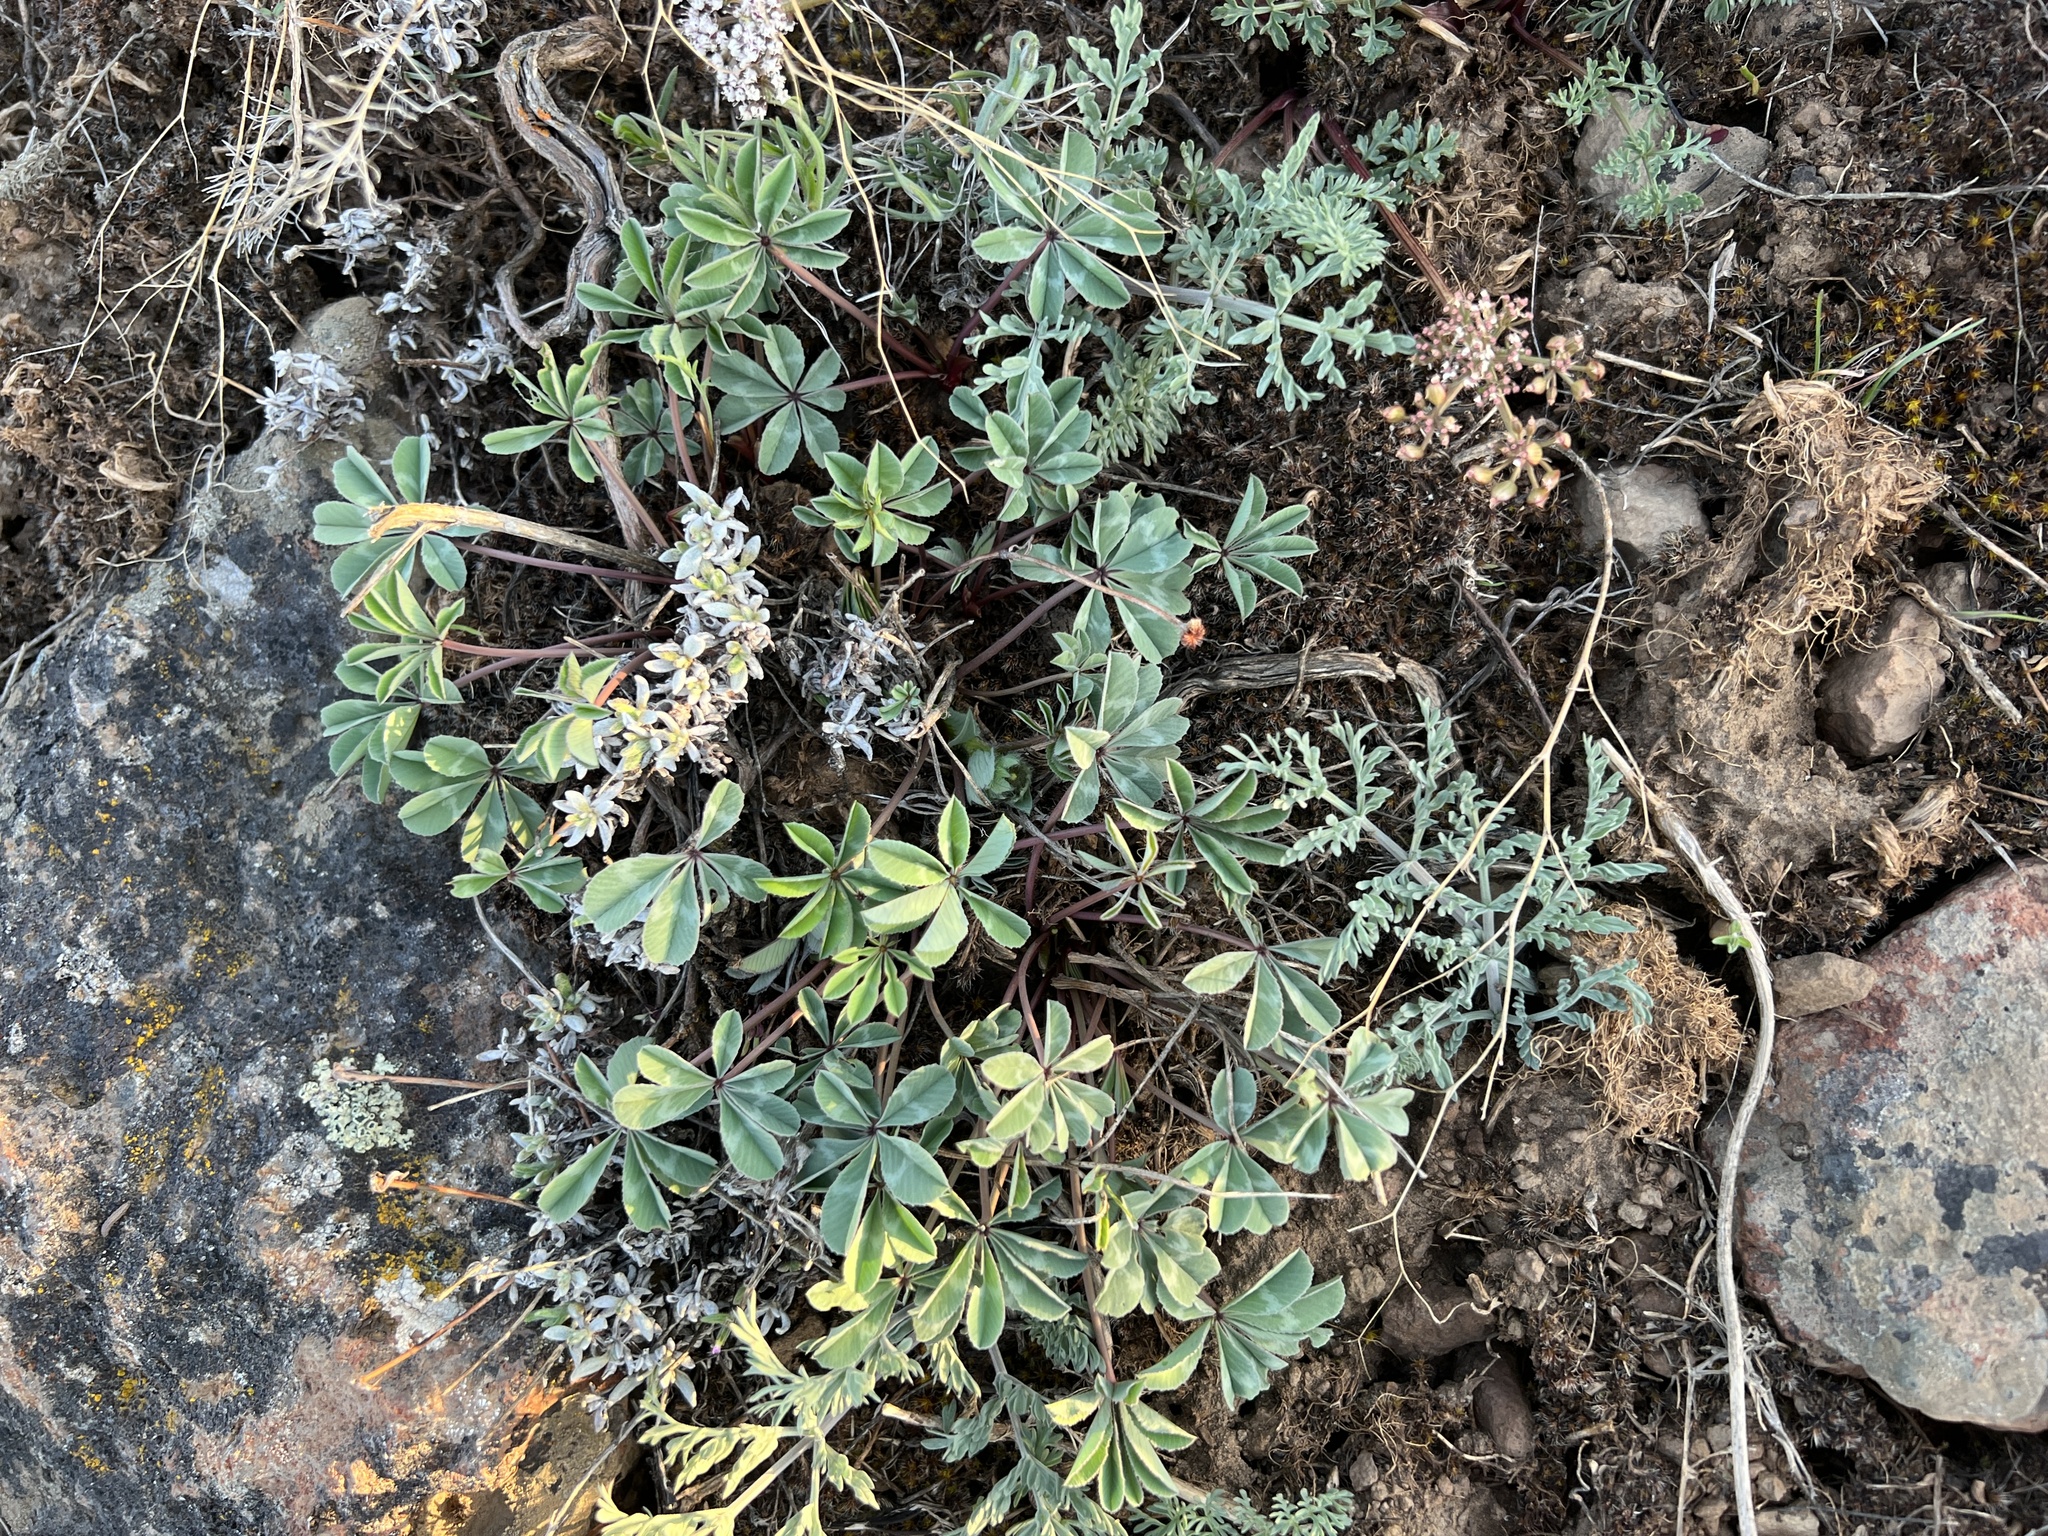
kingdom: Plantae
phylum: Tracheophyta
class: Magnoliopsida
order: Fabales
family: Fabaceae
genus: Trifolium
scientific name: Trifolium macrocephalum
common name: Large-head clover
